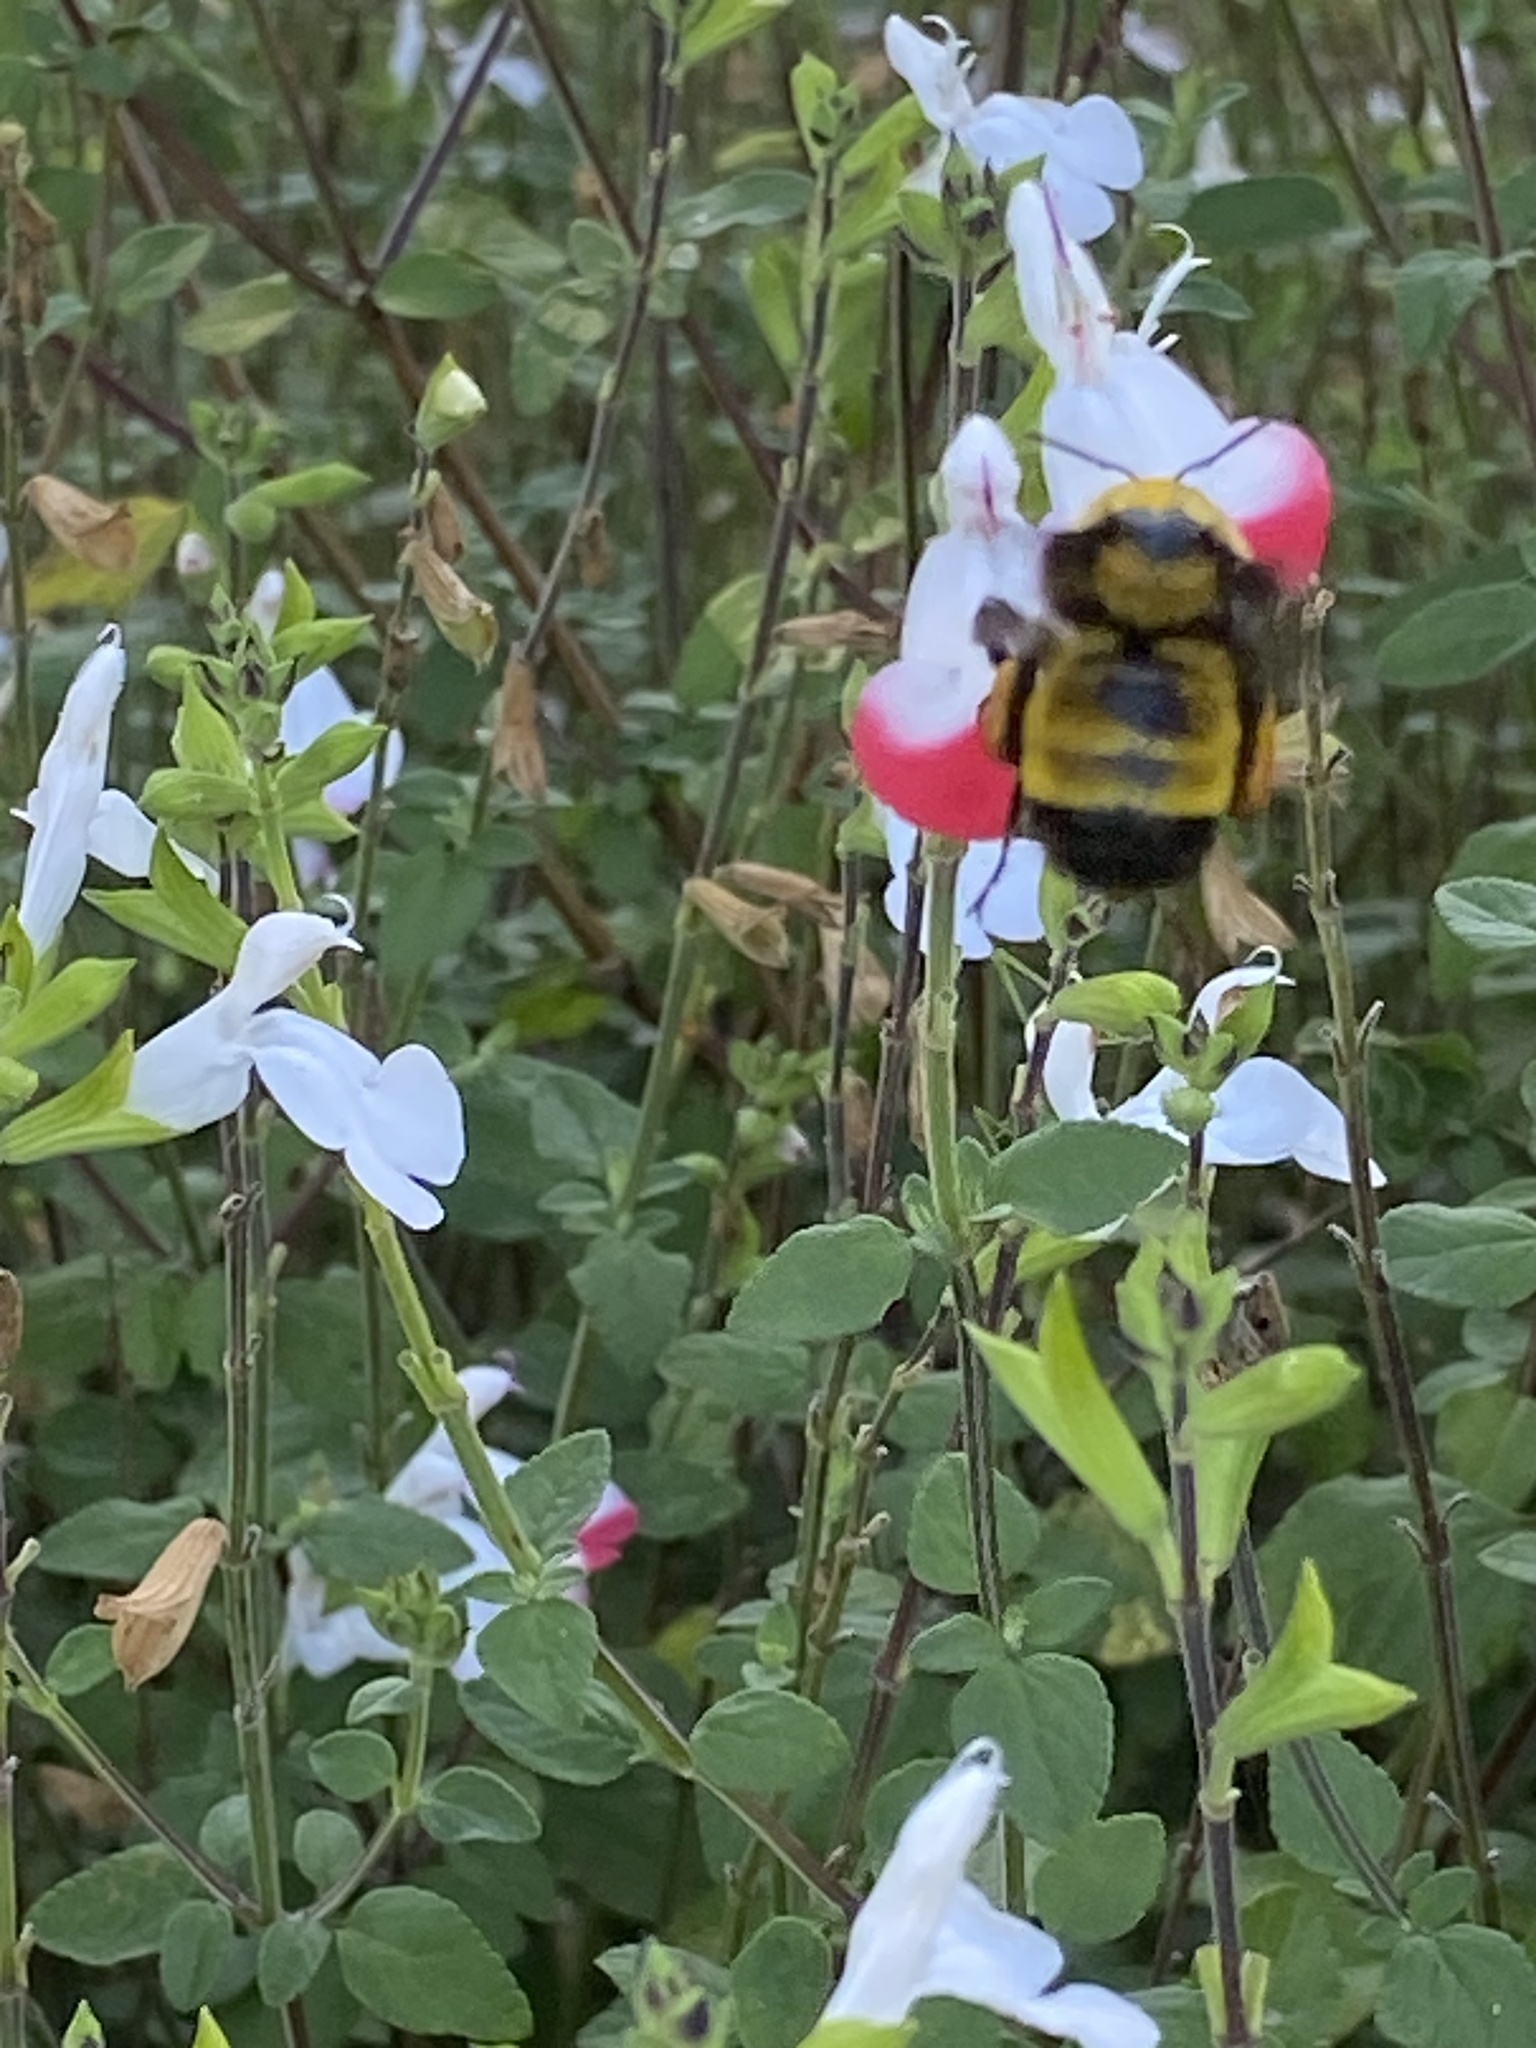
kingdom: Animalia
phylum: Arthropoda
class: Insecta
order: Hymenoptera
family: Apidae
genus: Bombus
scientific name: Bombus sonorus
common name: Sonoran bumble bee
